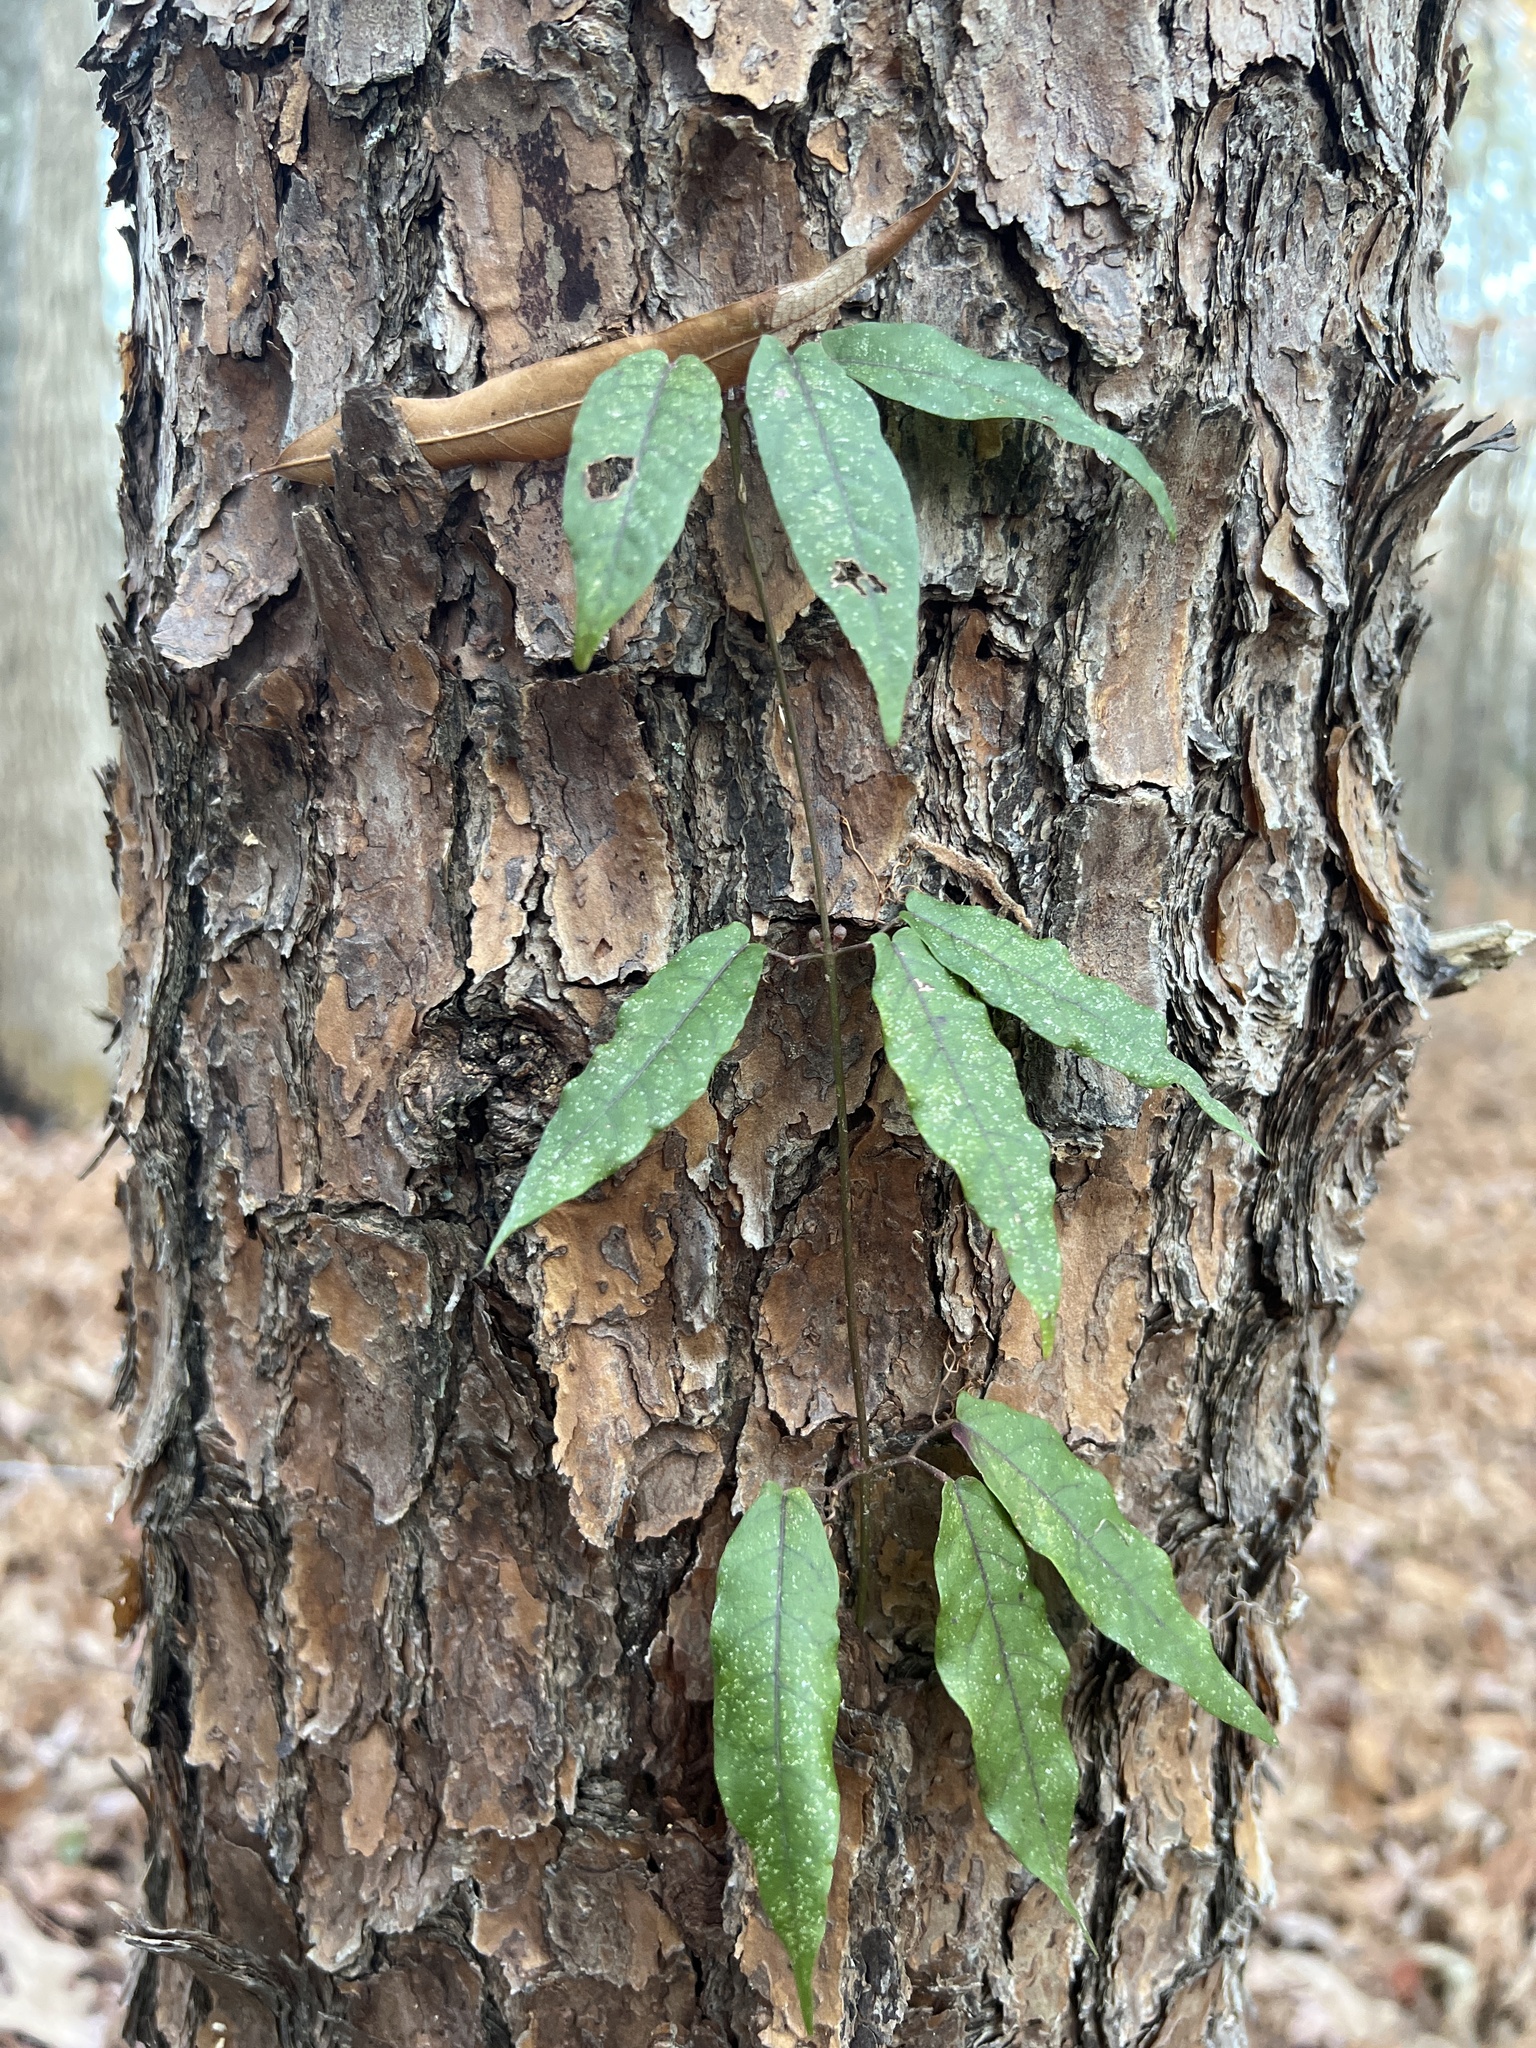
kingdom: Plantae
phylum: Tracheophyta
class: Magnoliopsida
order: Lamiales
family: Bignoniaceae
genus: Bignonia
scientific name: Bignonia capreolata
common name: Crossvine
